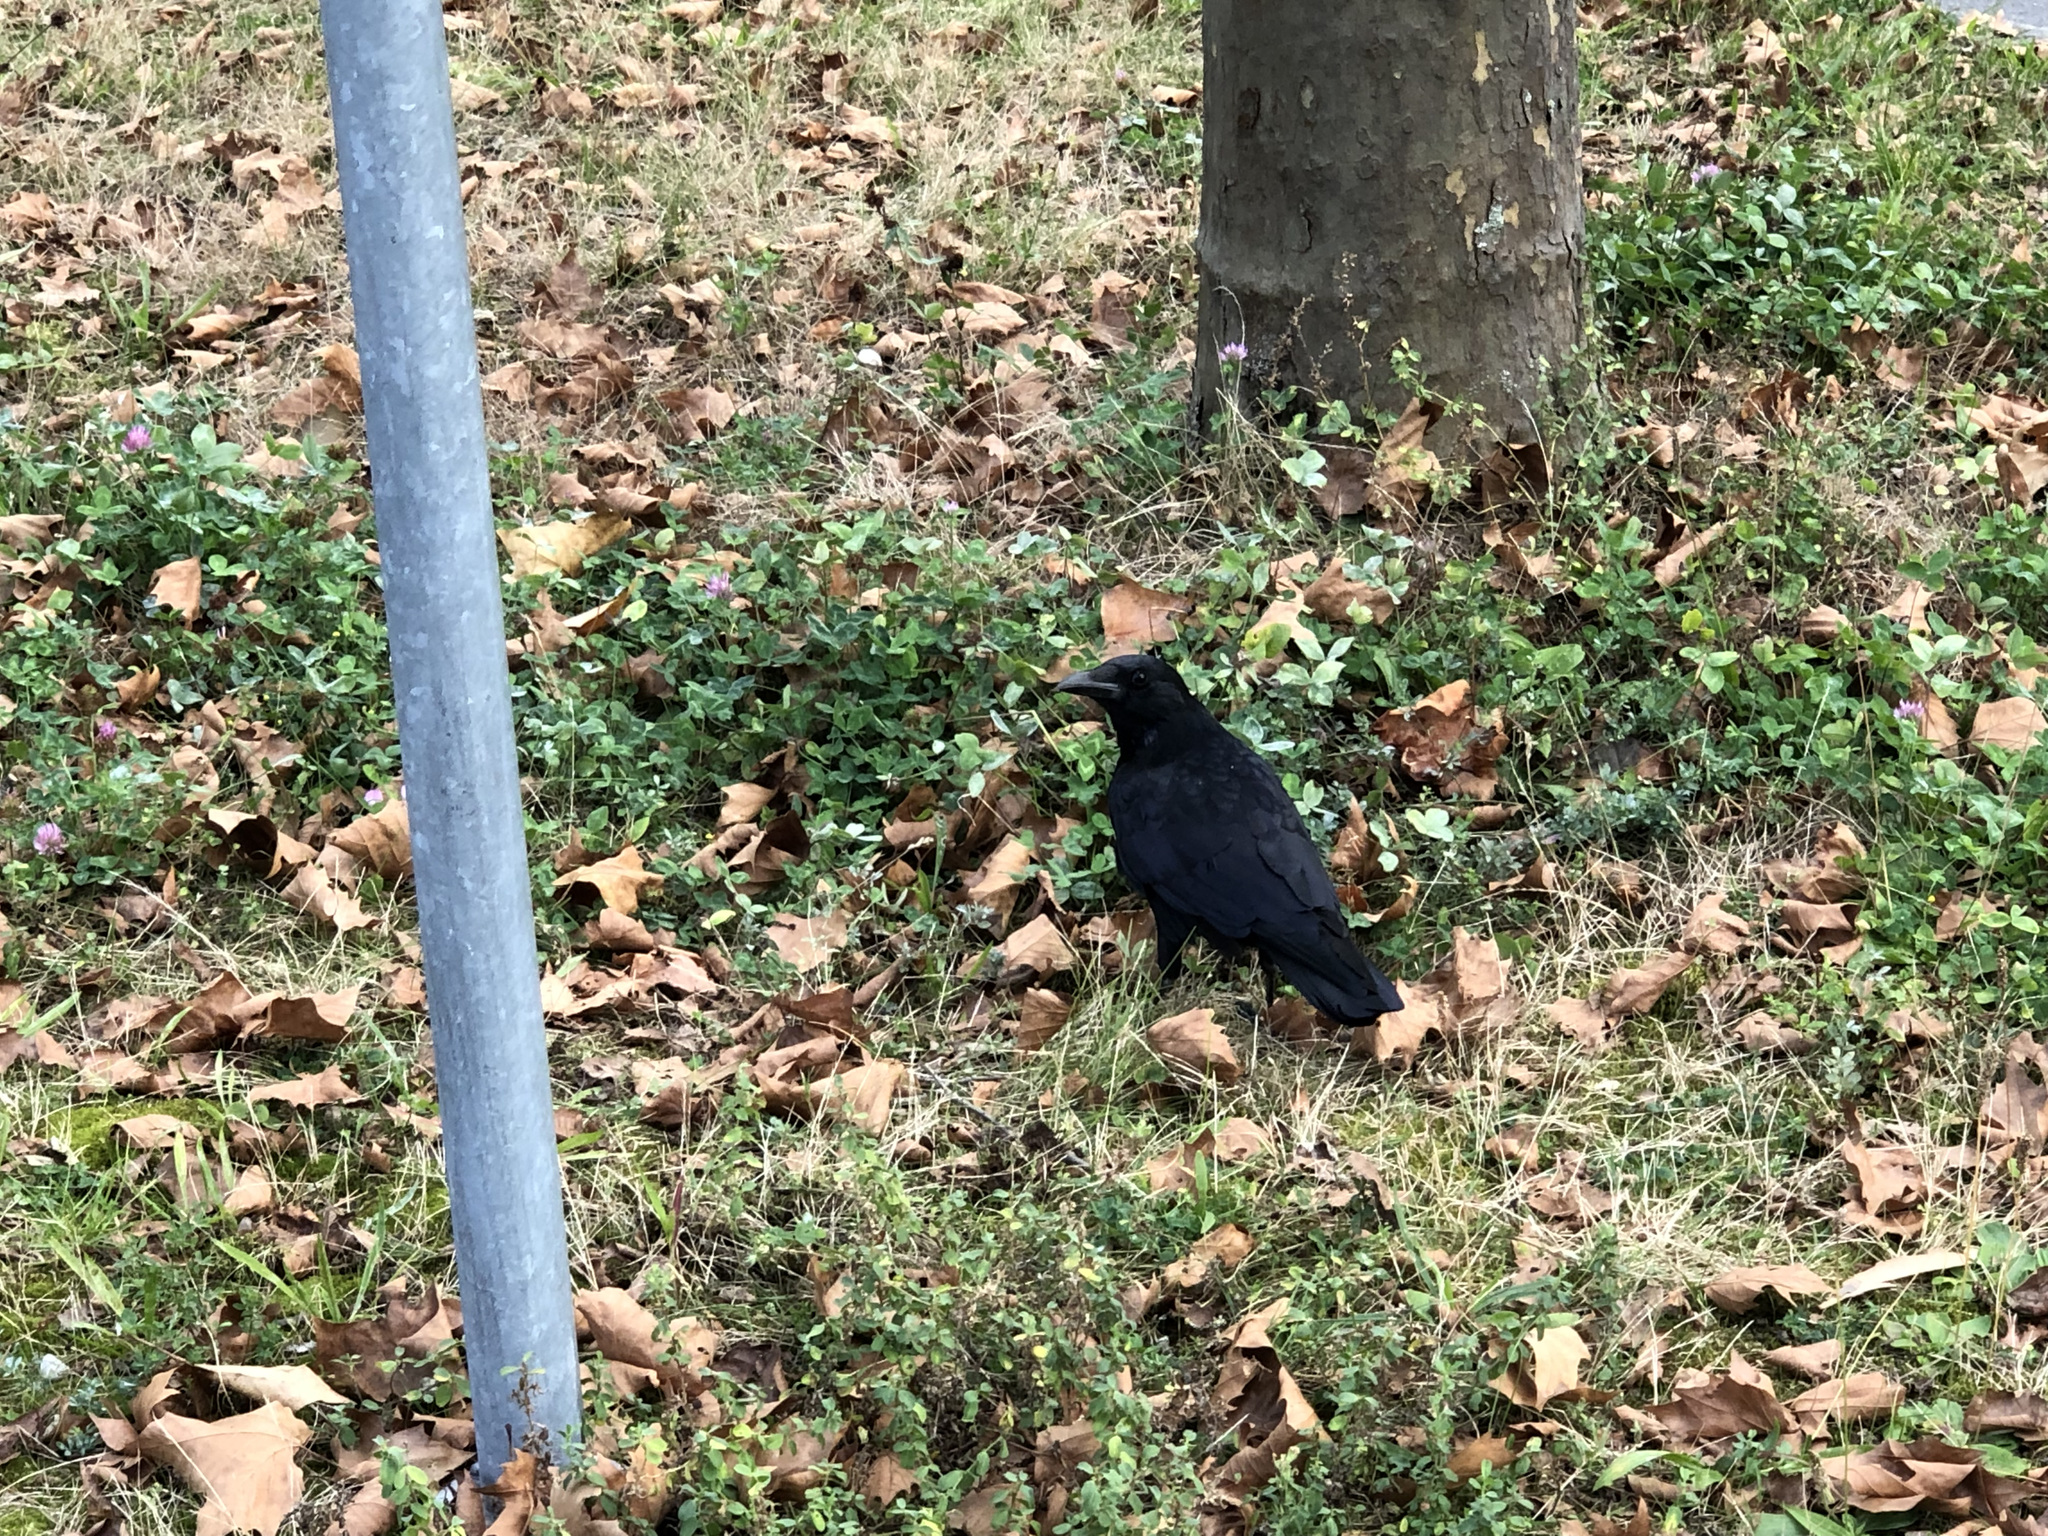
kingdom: Animalia
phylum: Chordata
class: Aves
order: Passeriformes
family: Corvidae
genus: Corvus
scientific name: Corvus corone
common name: Carrion crow
